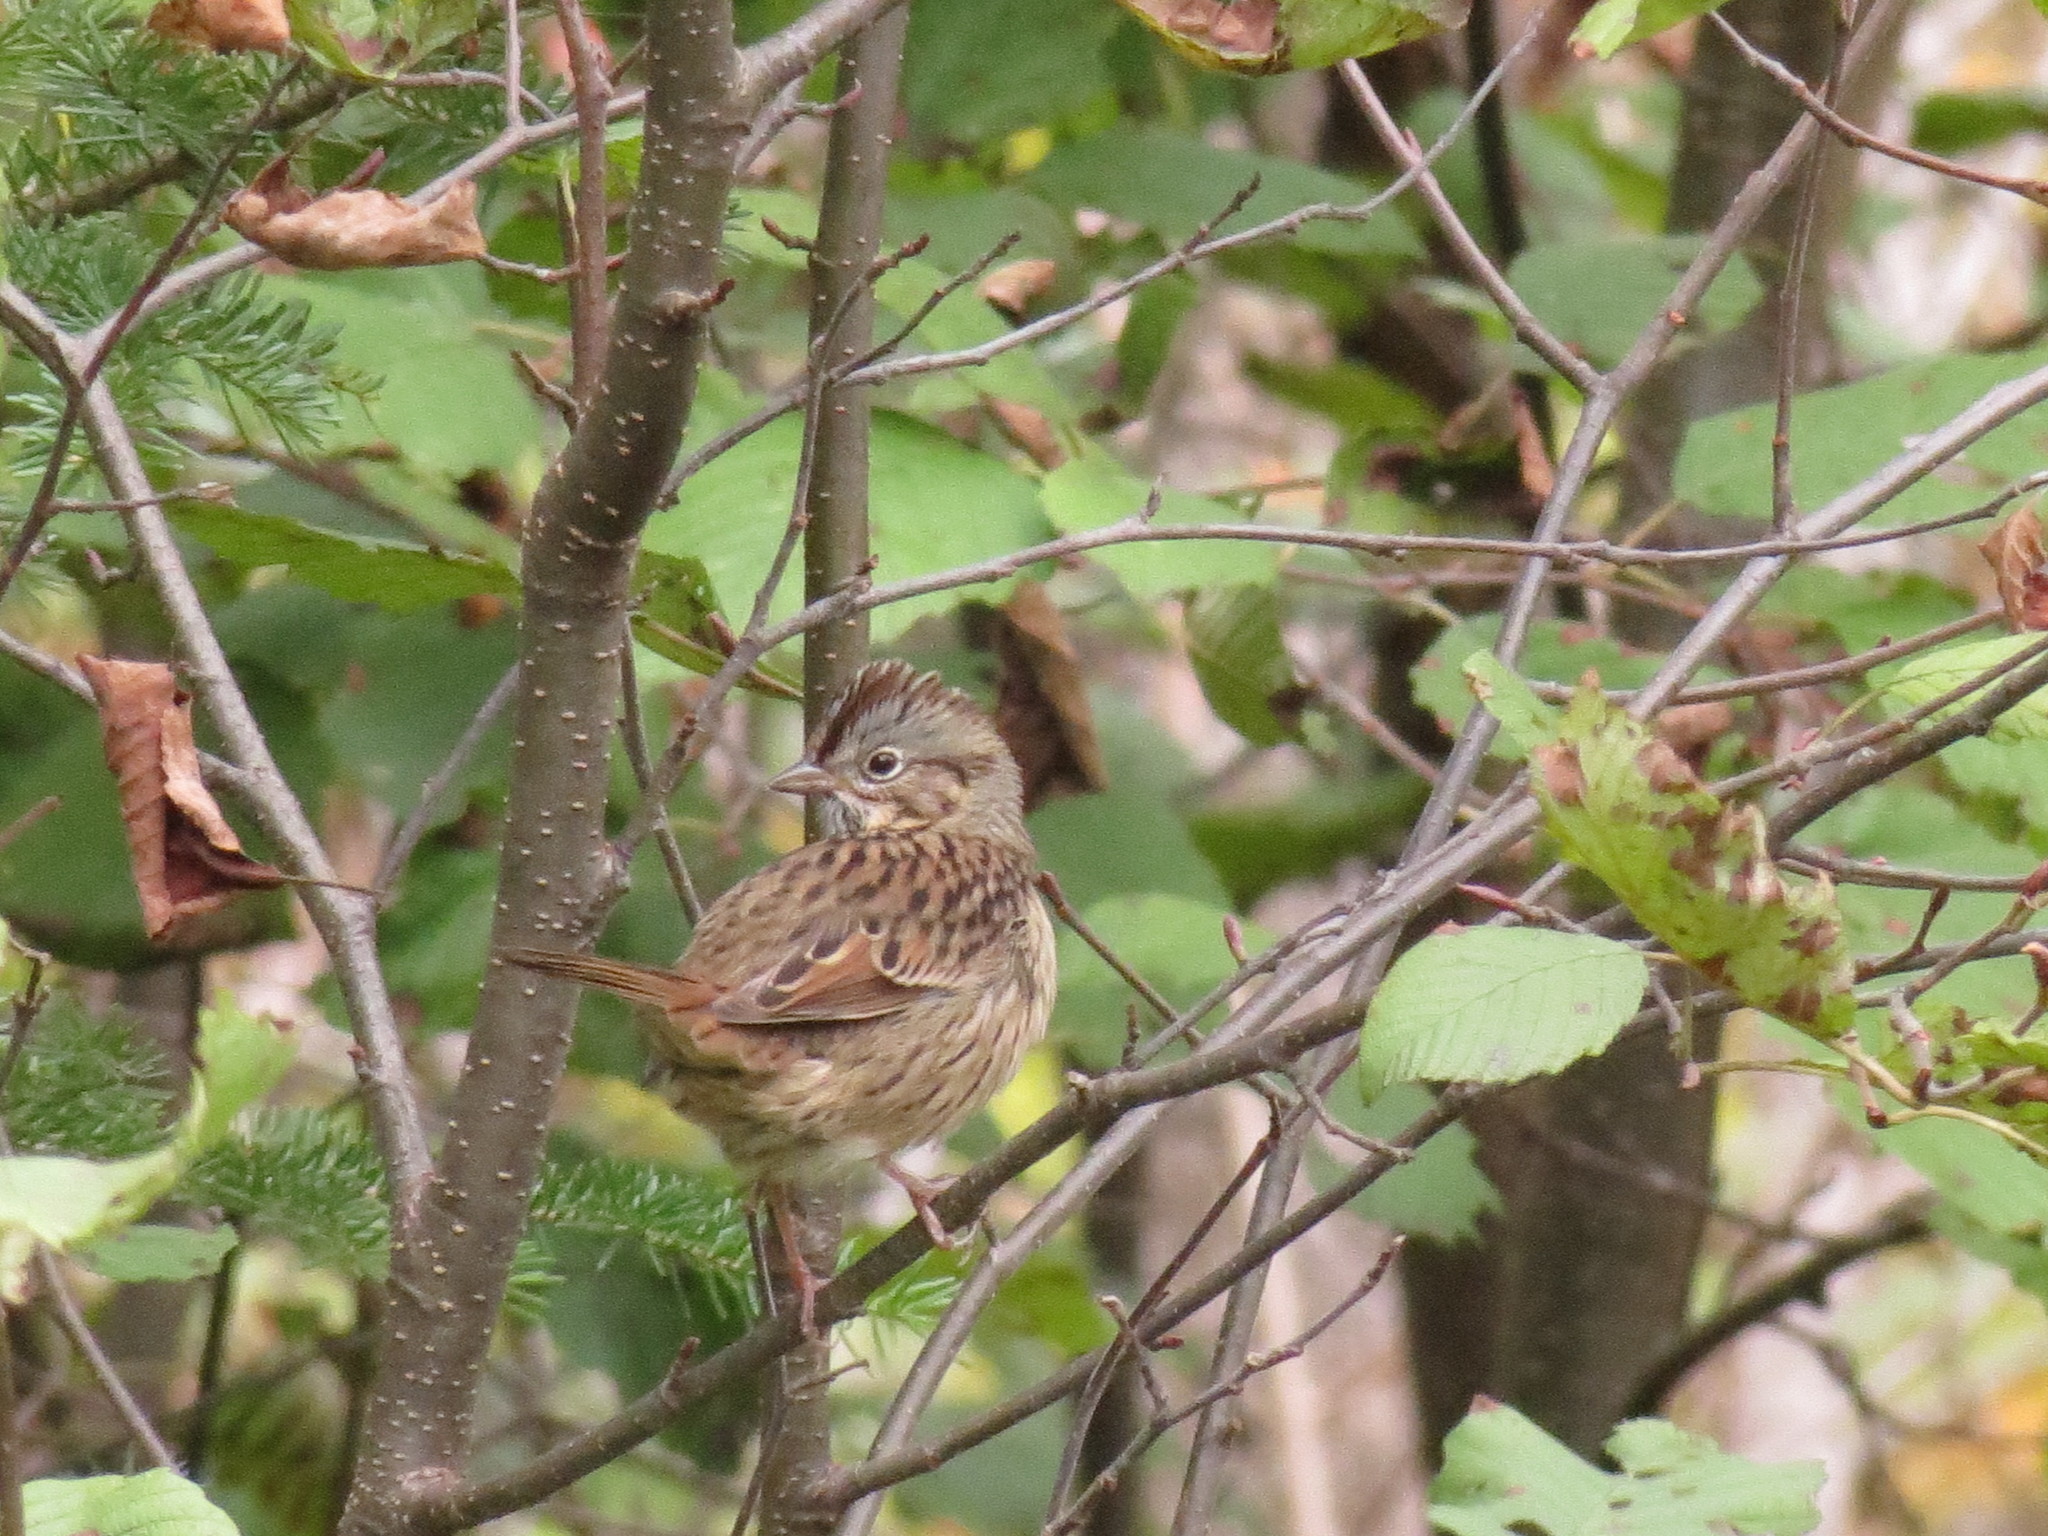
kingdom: Animalia
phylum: Chordata
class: Aves
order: Passeriformes
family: Passerellidae
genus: Melospiza
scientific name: Melospiza lincolnii
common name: Lincoln's sparrow
